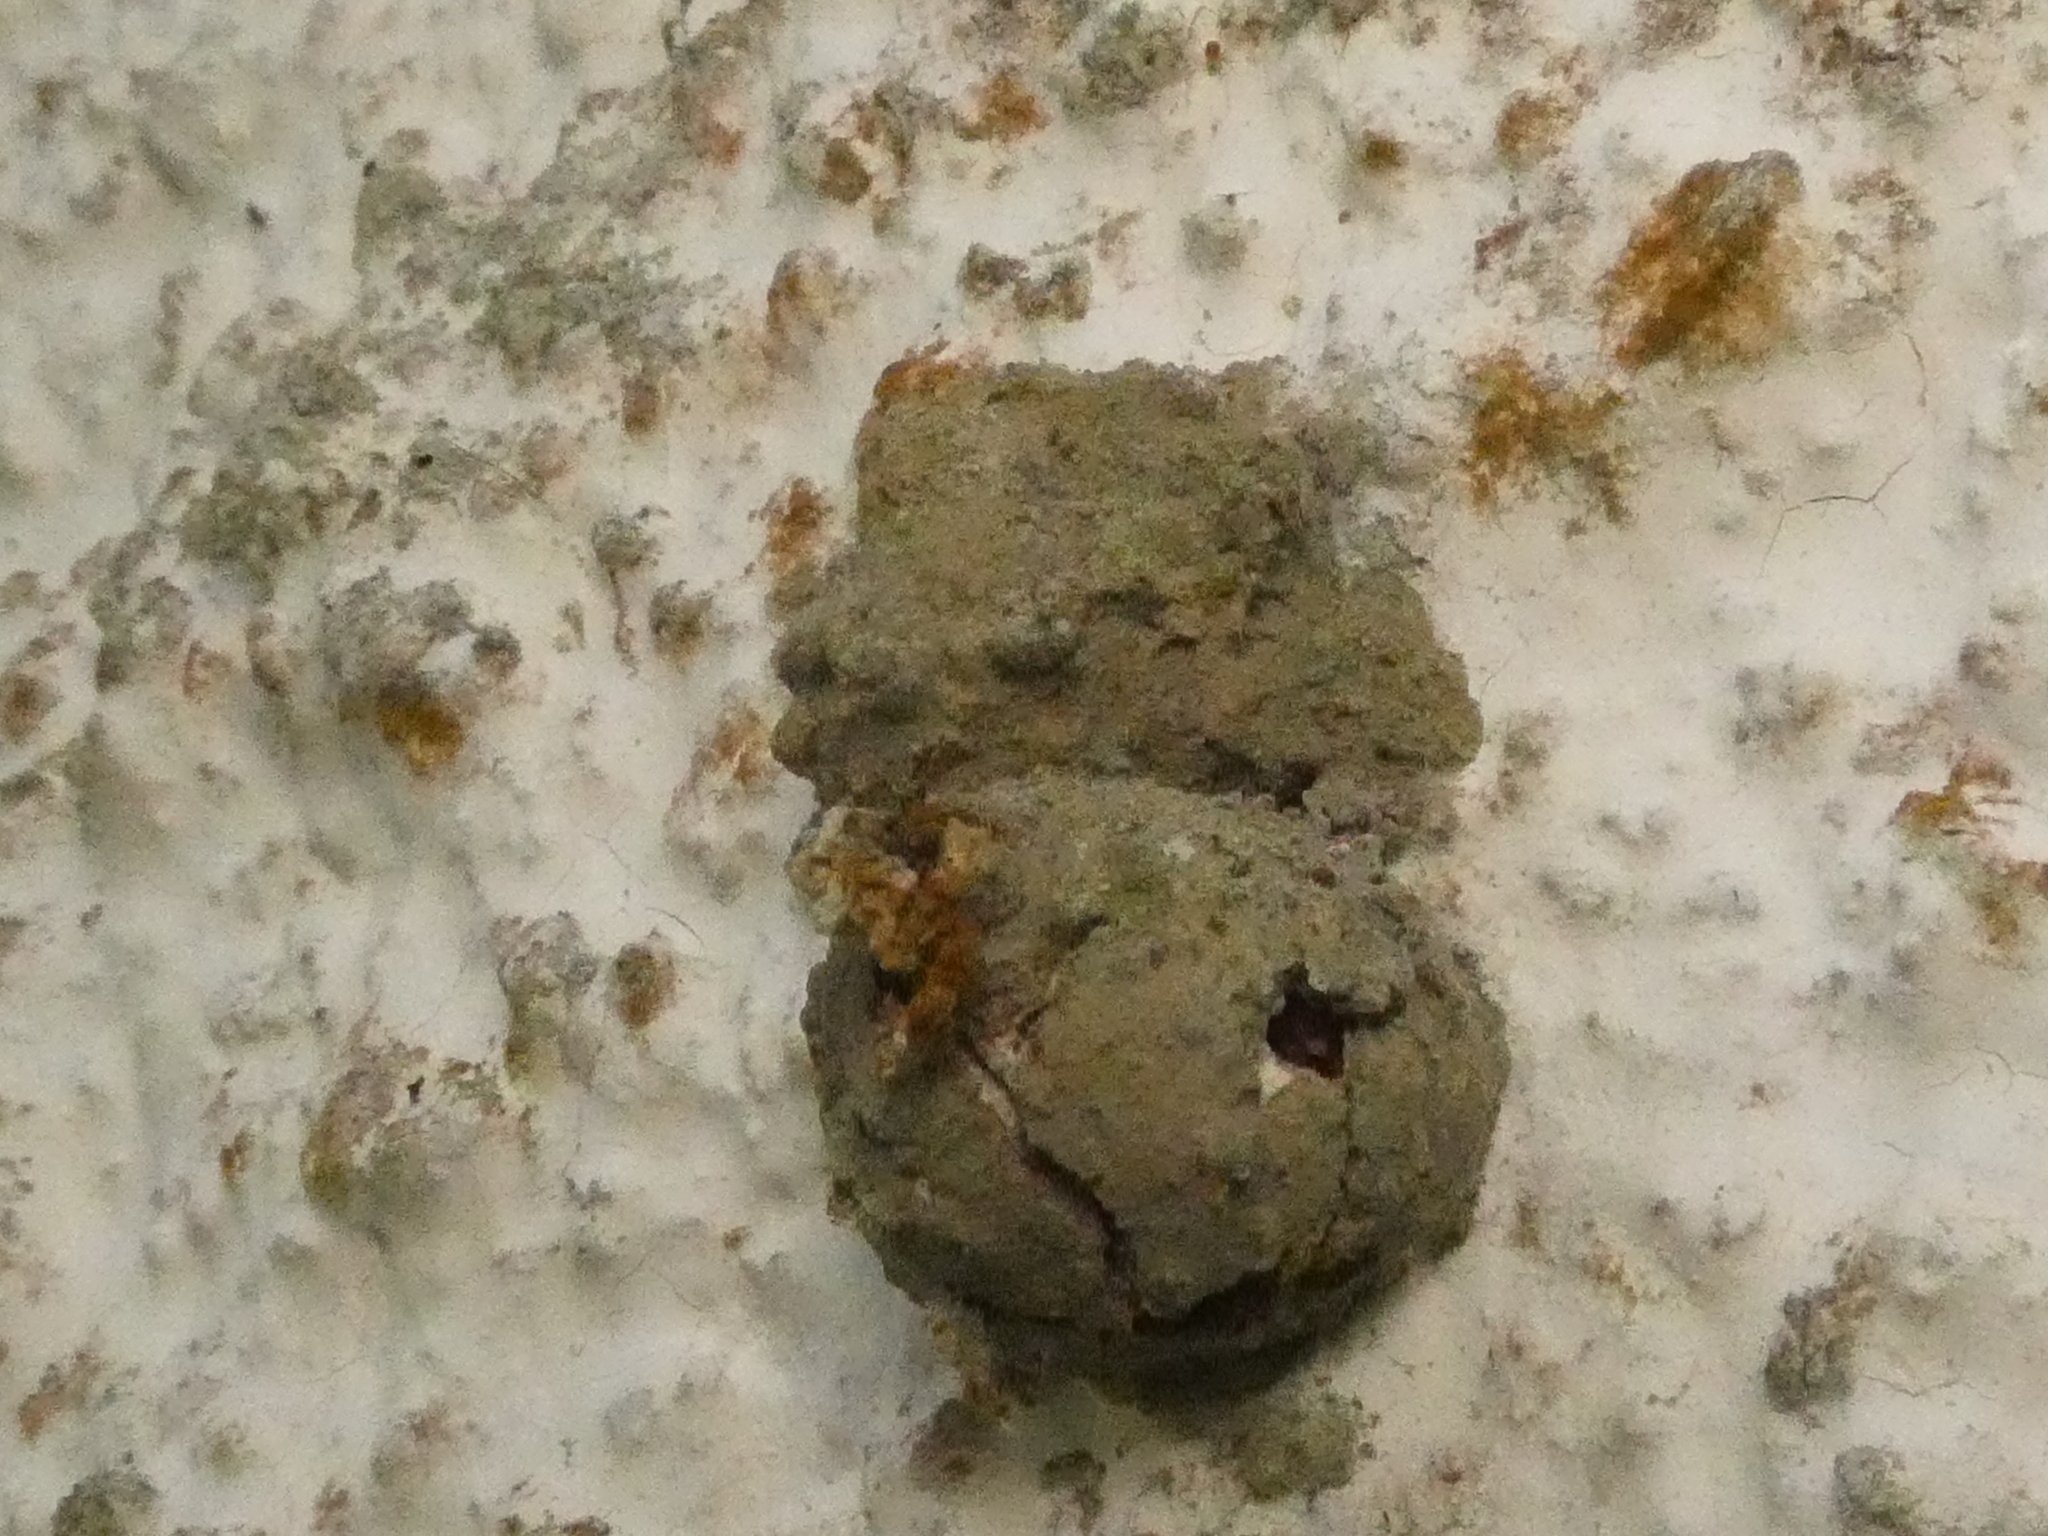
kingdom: Animalia
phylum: Arthropoda
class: Insecta
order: Hymenoptera
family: Eumenidae
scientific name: Eumenidae
